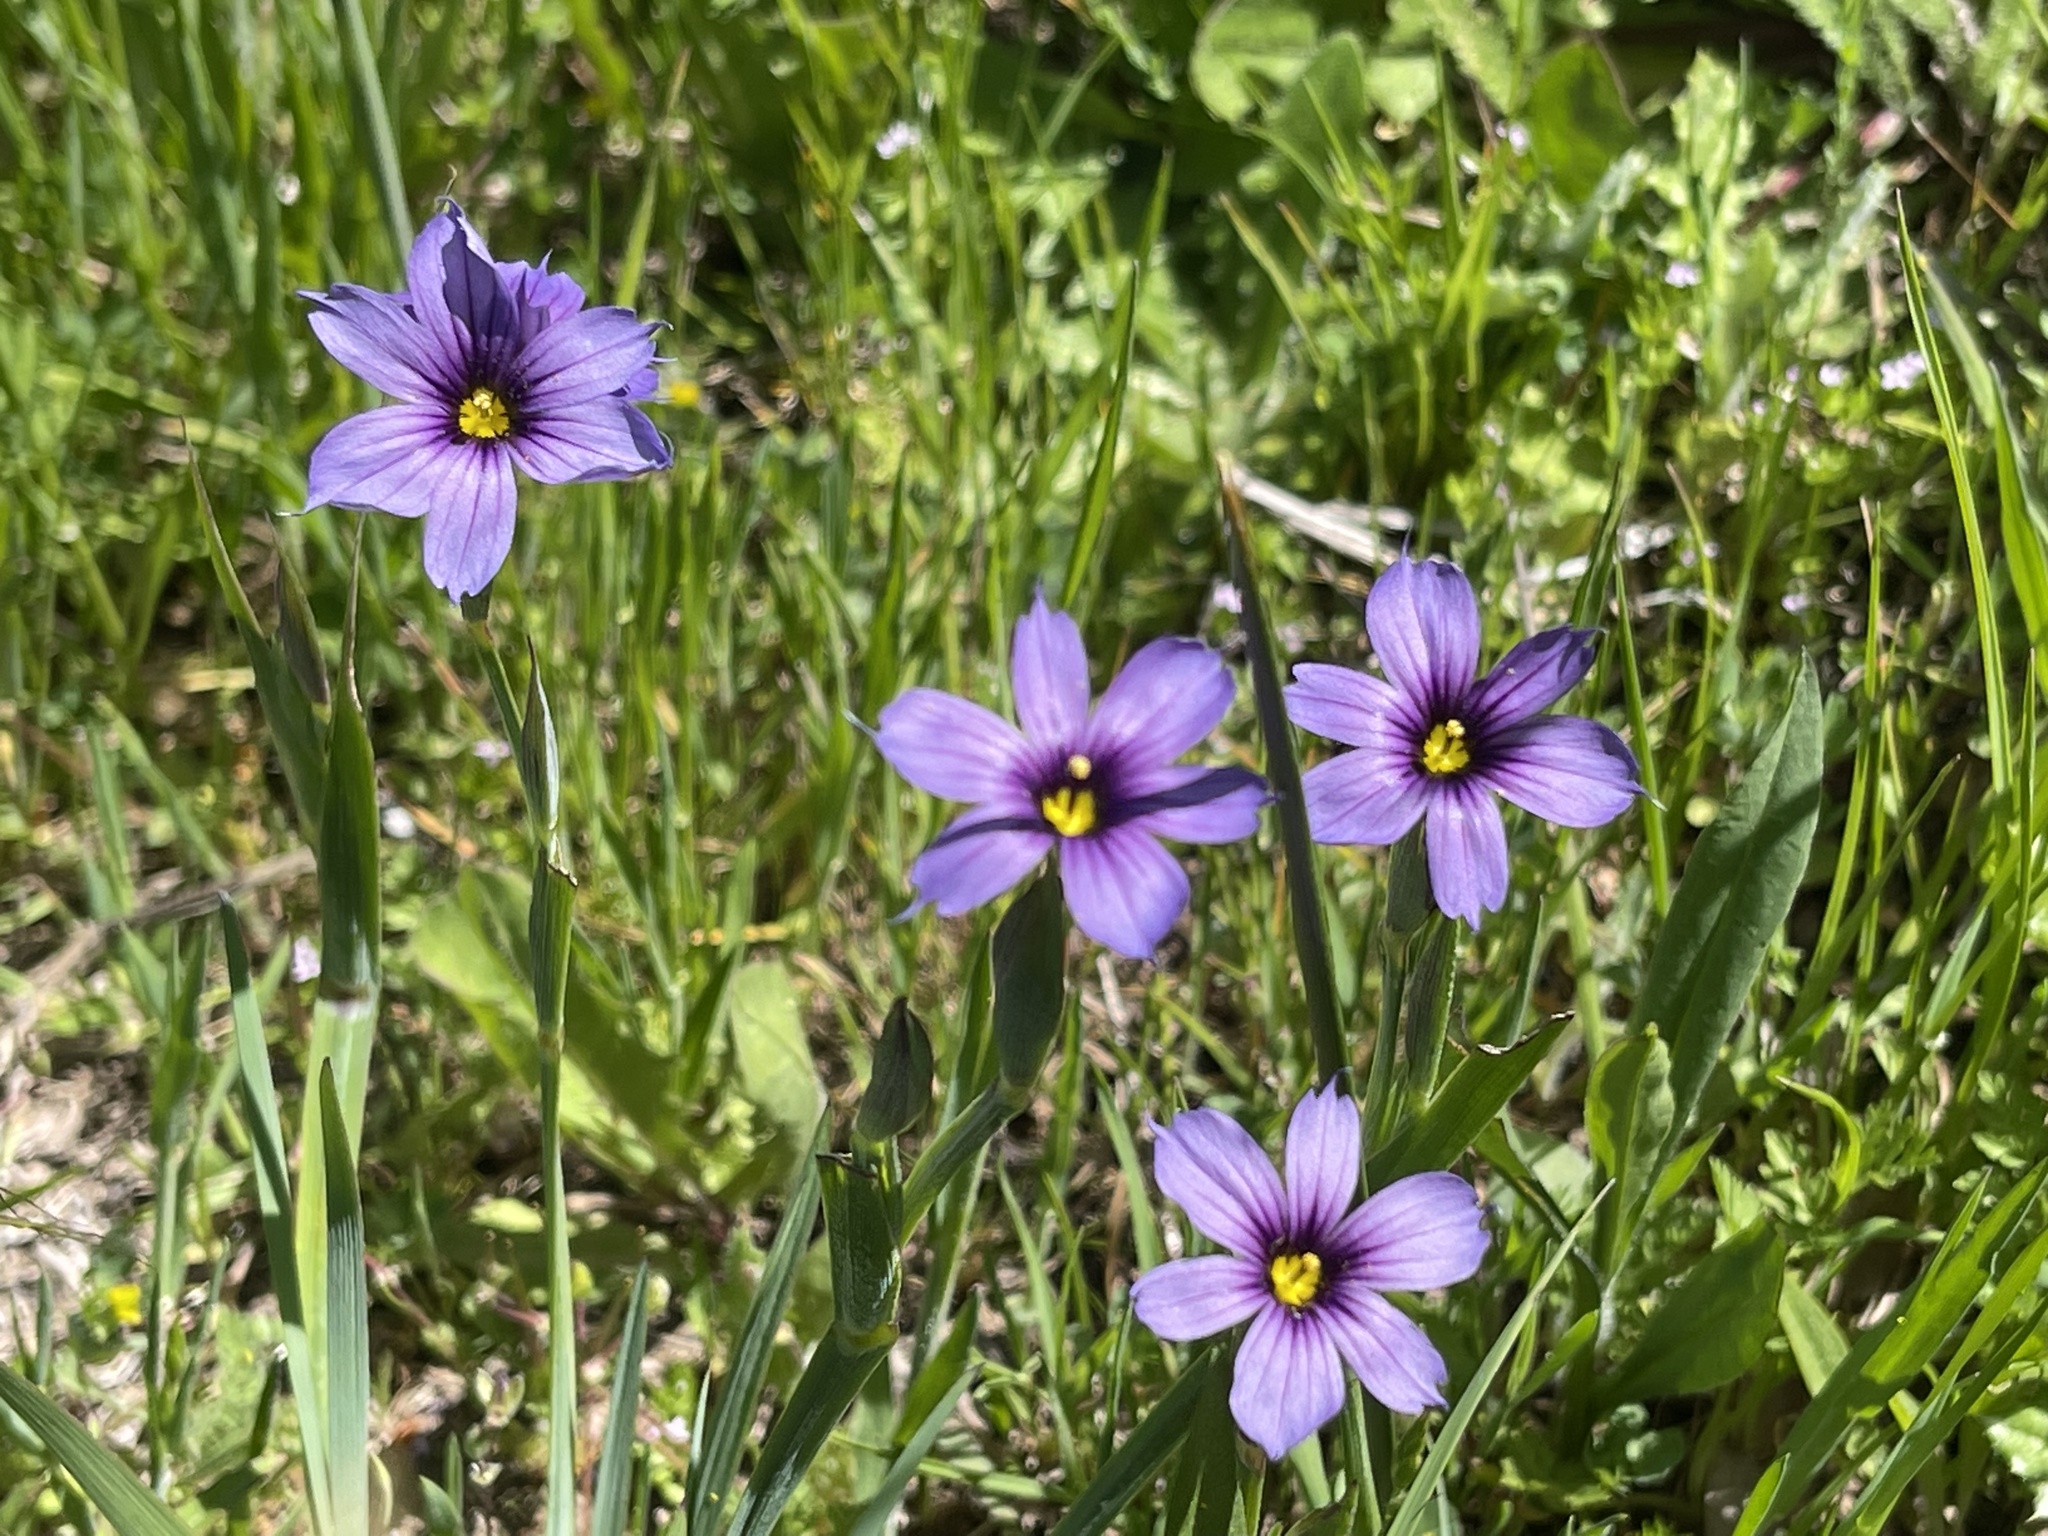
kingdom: Plantae
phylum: Tracheophyta
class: Liliopsida
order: Asparagales
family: Iridaceae
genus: Sisyrinchium
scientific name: Sisyrinchium bellum
